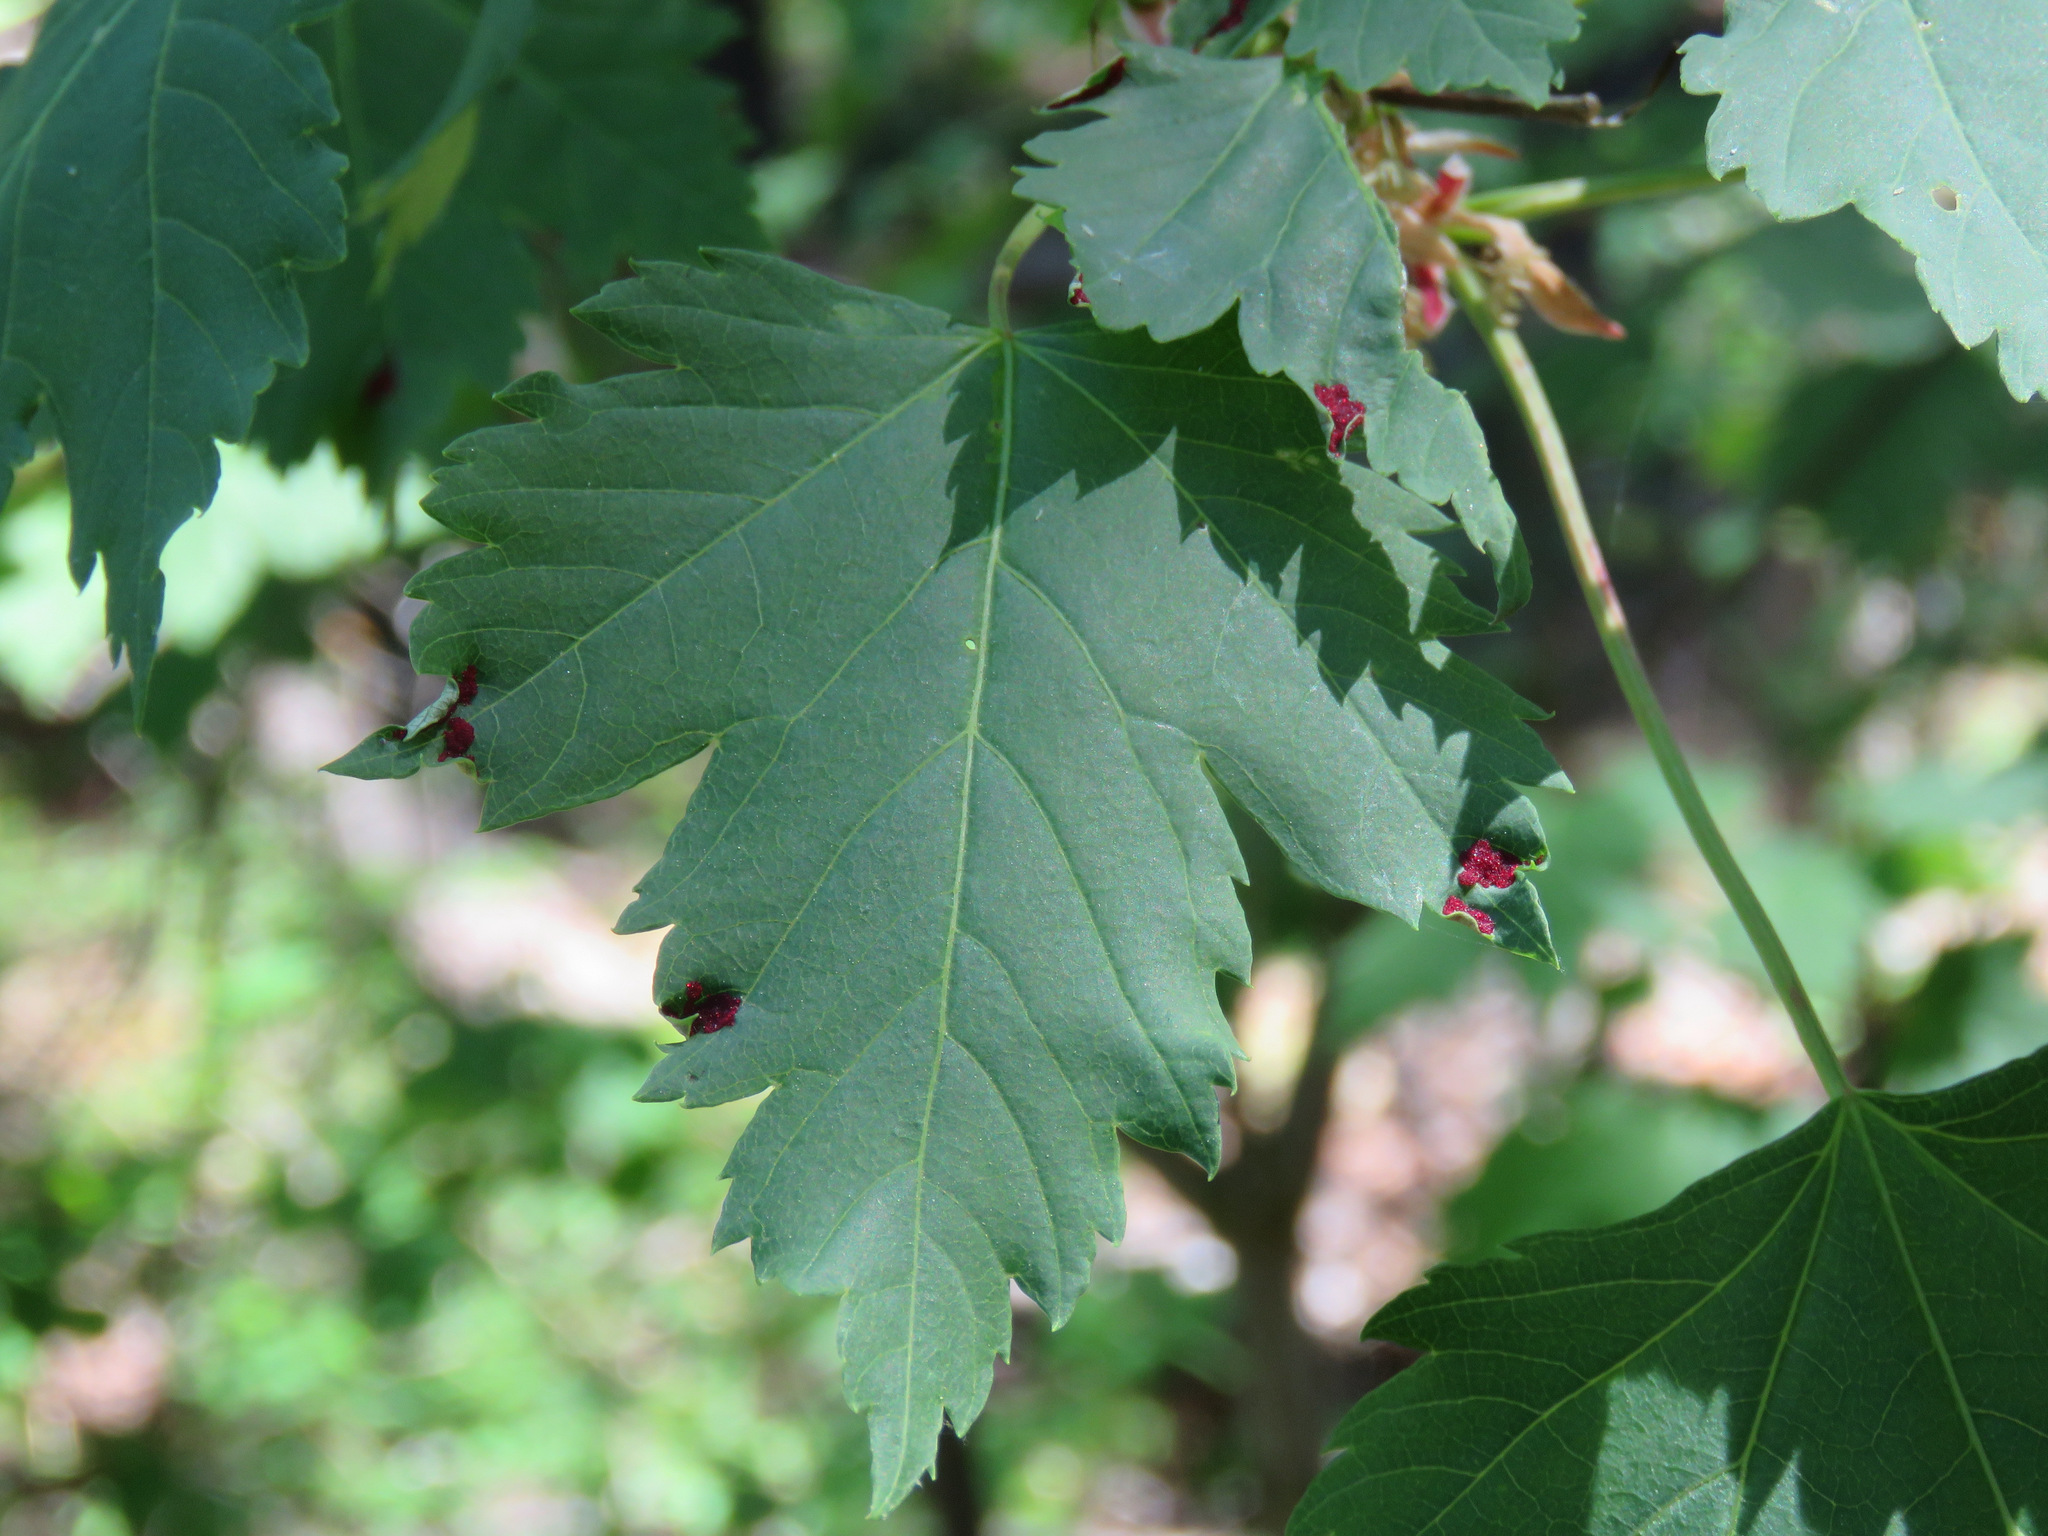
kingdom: Plantae
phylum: Tracheophyta
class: Magnoliopsida
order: Sapindales
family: Sapindaceae
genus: Acer
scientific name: Acer glabrum
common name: Rocky mountain maple
